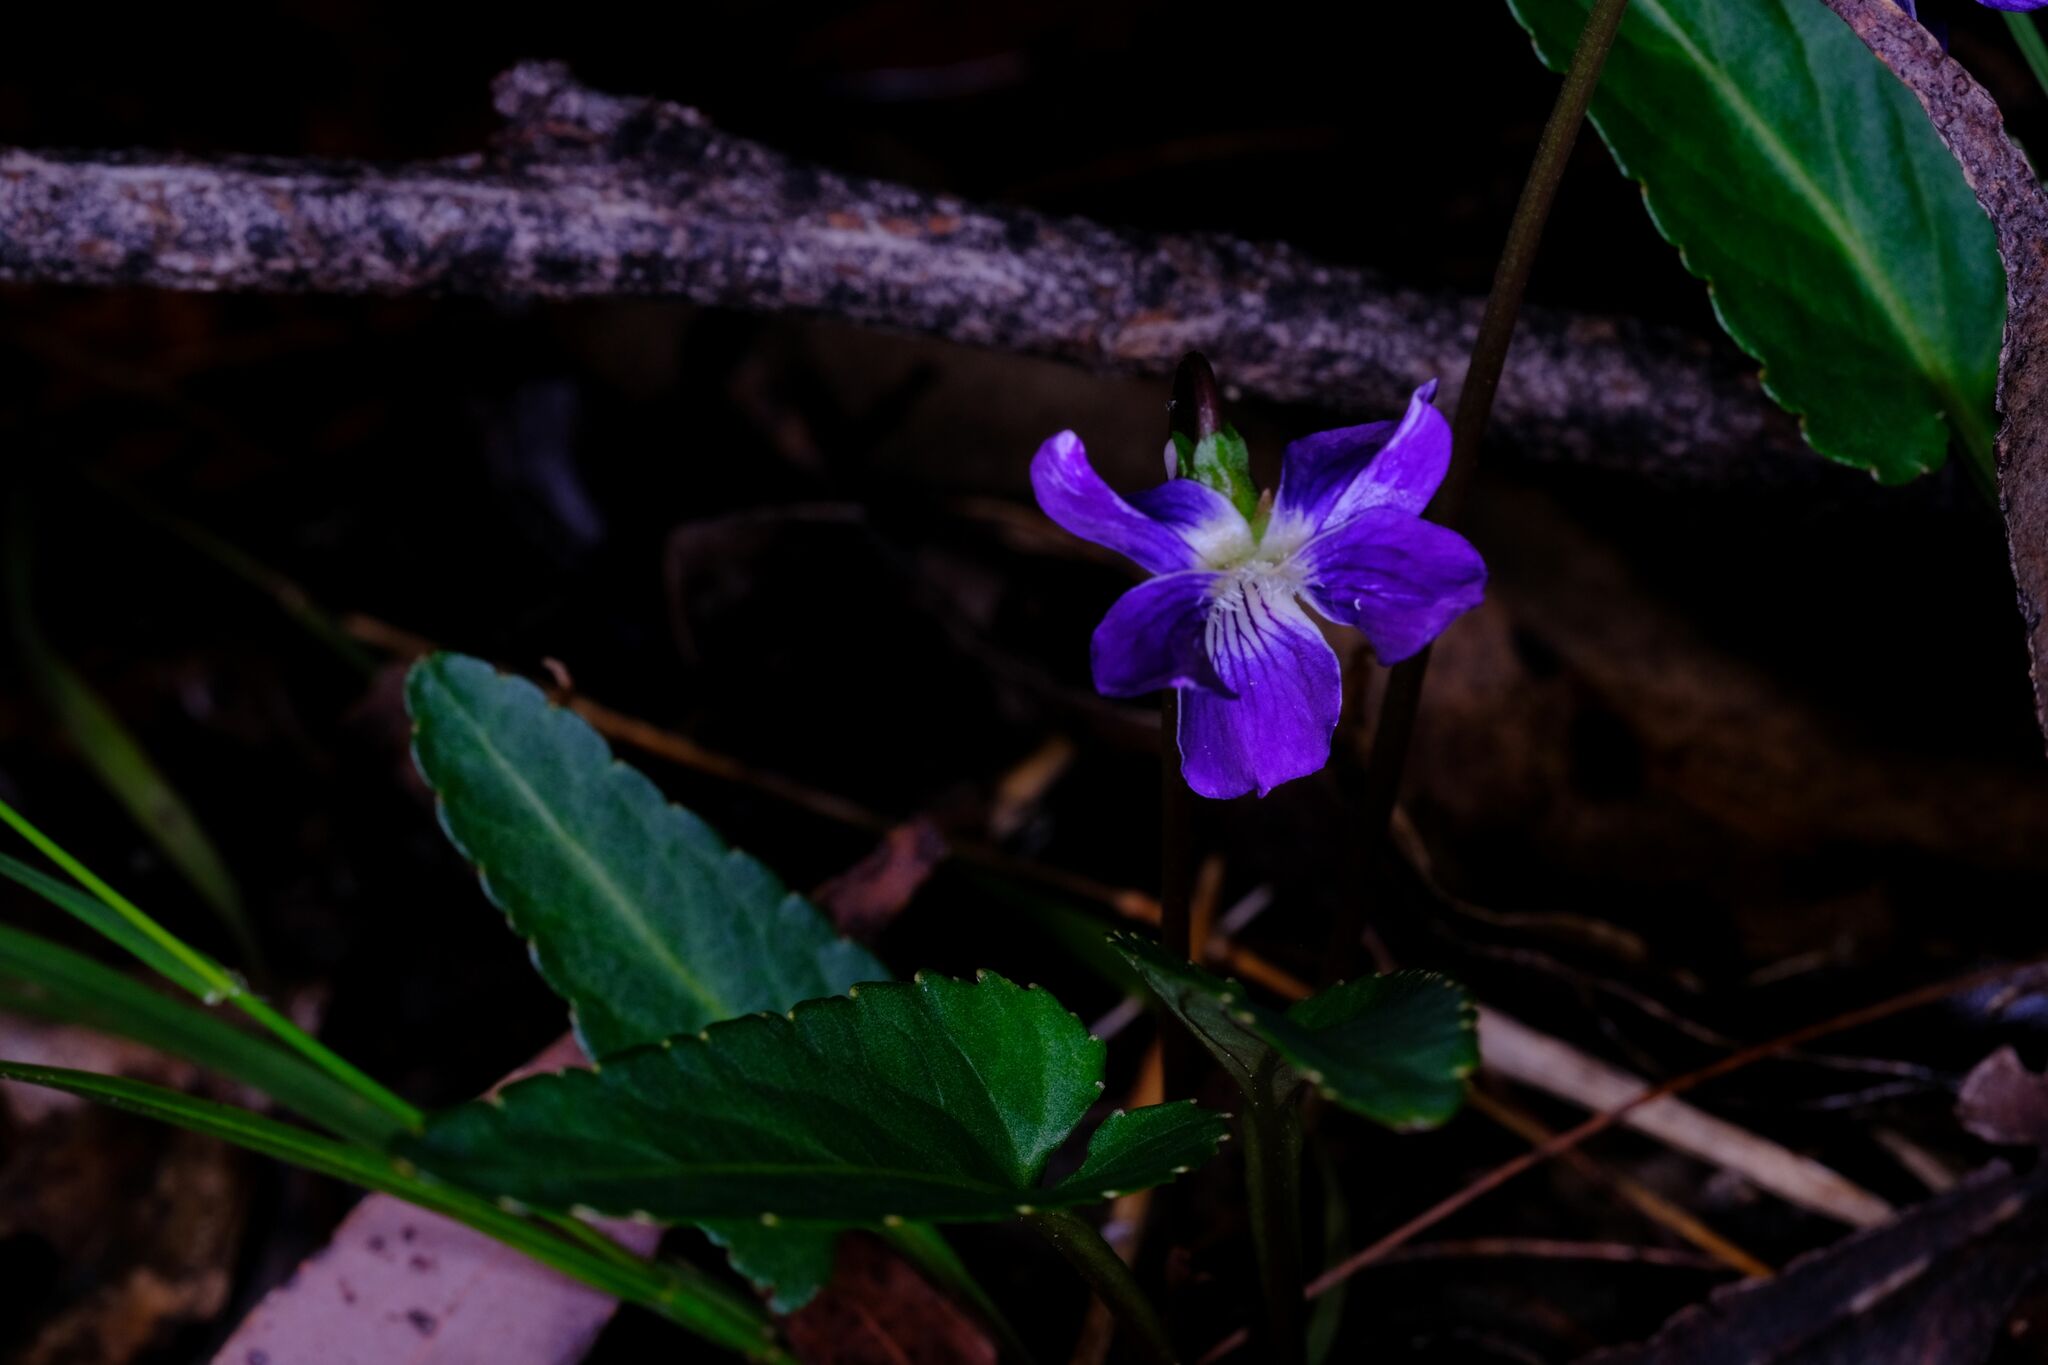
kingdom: Plantae
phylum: Tracheophyta
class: Magnoliopsida
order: Malpighiales
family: Violaceae
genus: Viola
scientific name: Viola betonicifolia
